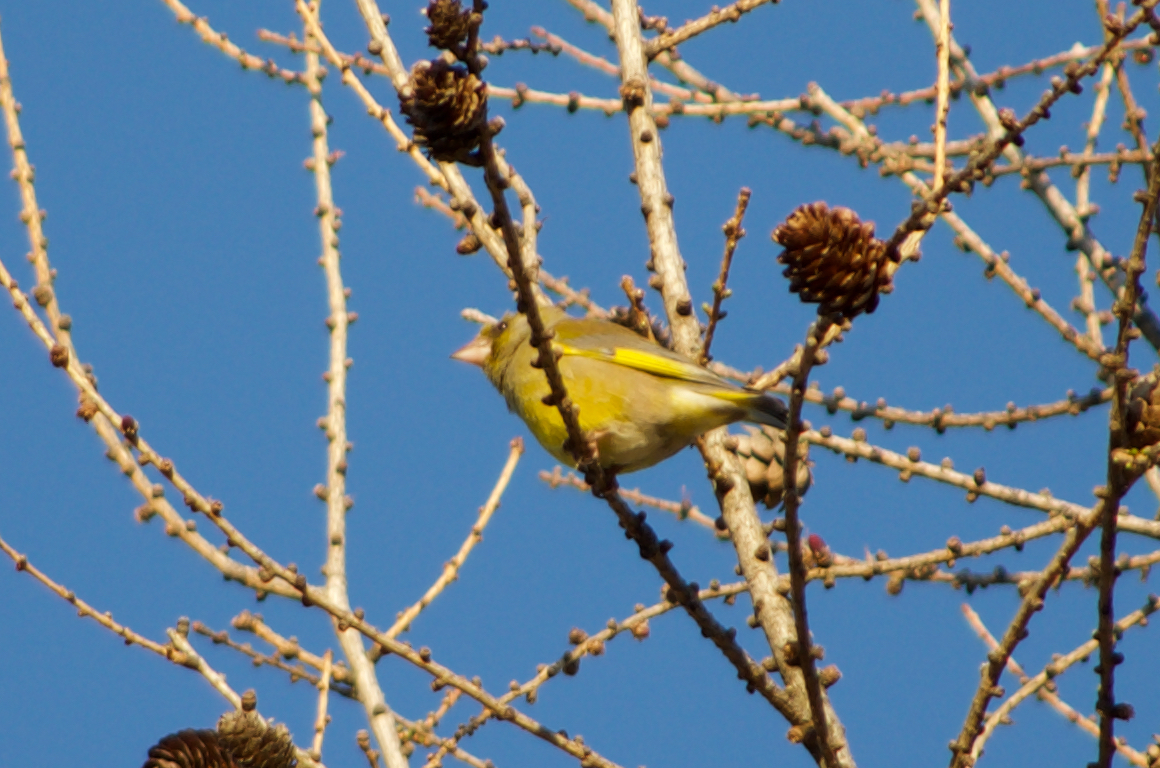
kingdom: Plantae
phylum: Tracheophyta
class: Liliopsida
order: Poales
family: Poaceae
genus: Chloris
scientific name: Chloris chloris
